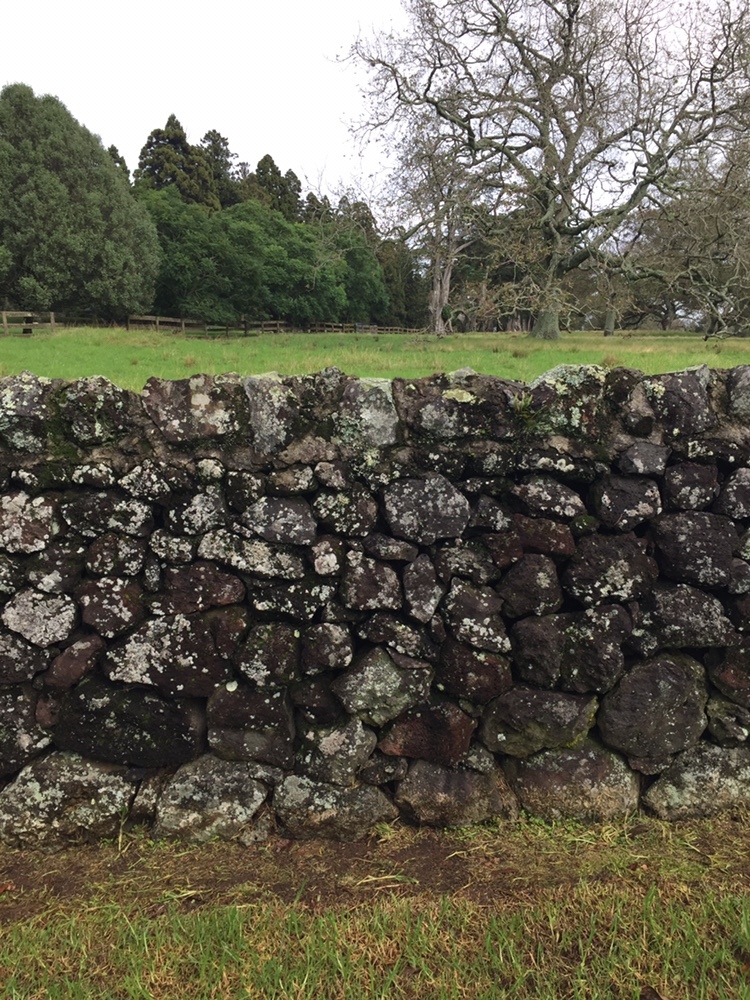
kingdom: Fungi
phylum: Ascomycota
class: Lecanoromycetes
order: Caliciales
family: Caliciaceae
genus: Dirinaria
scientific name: Dirinaria applanata
